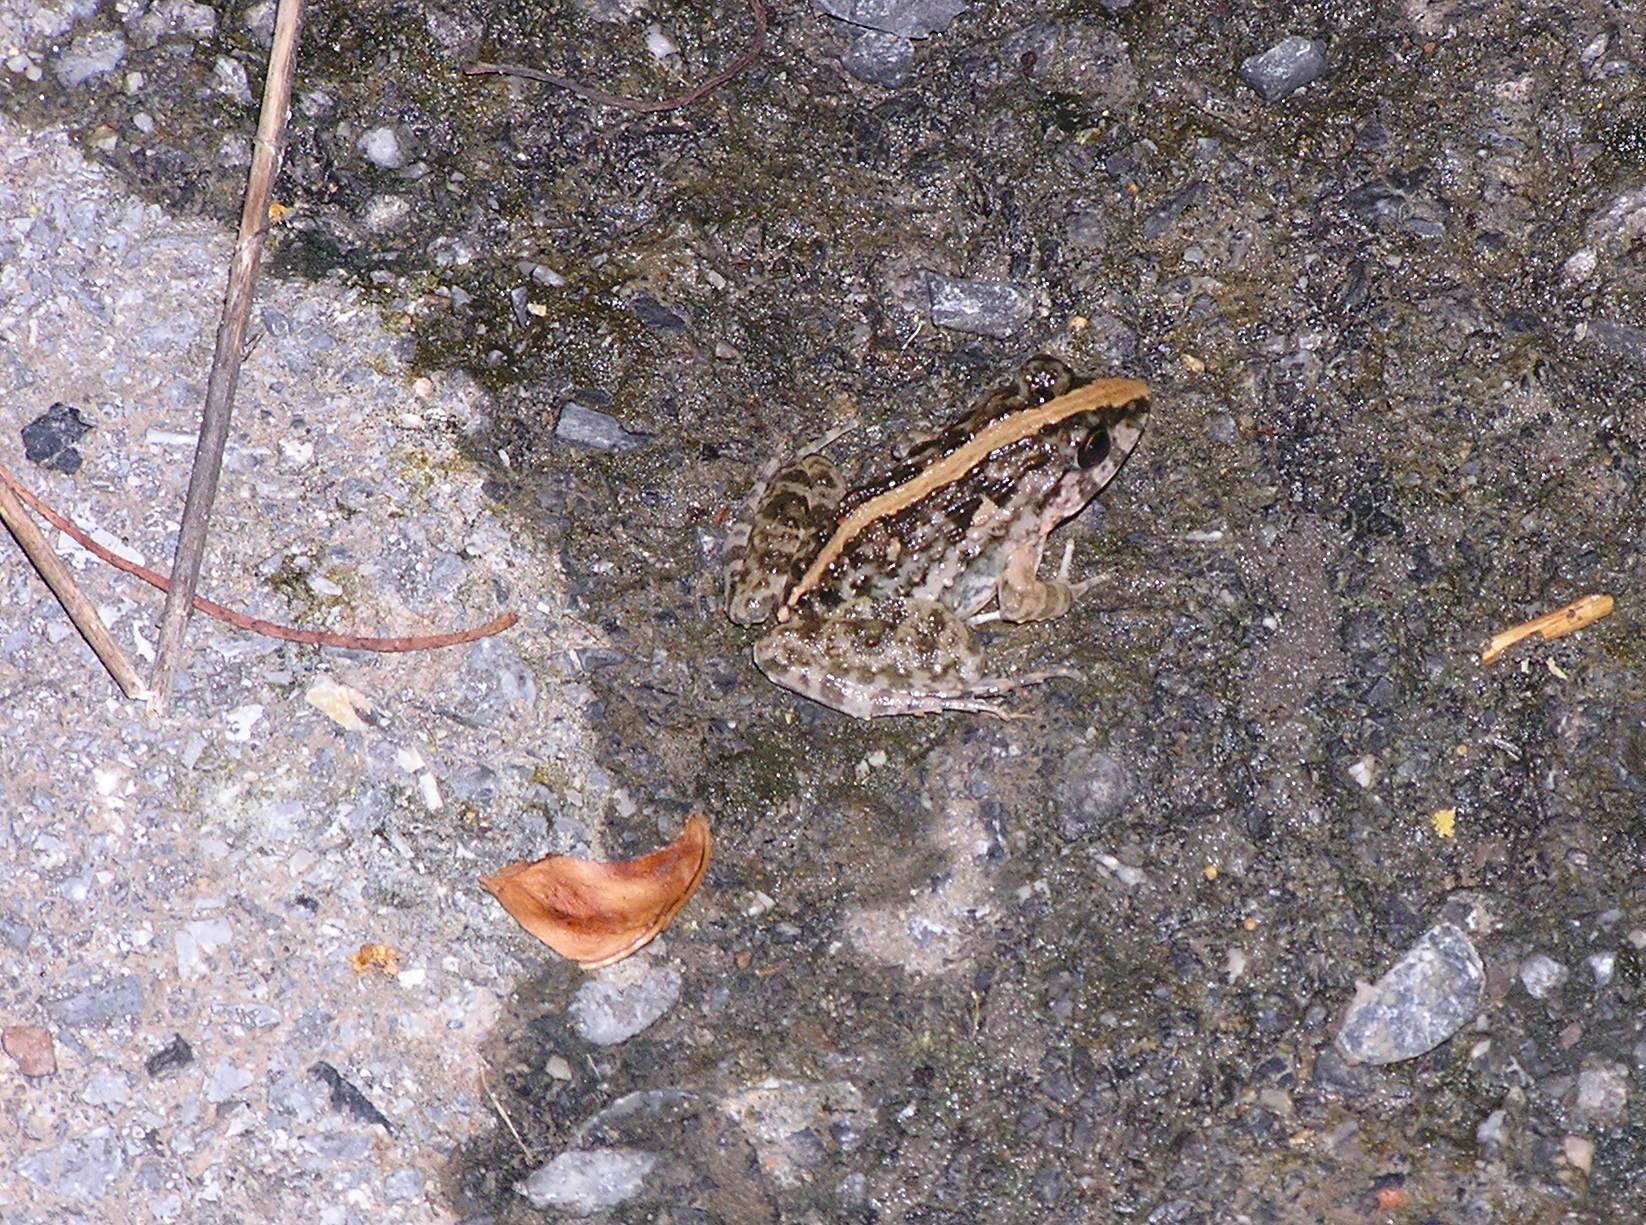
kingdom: Animalia
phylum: Chordata
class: Amphibia
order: Anura
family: Dicroglossidae
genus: Fejervarya
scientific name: Fejervarya limnocharis
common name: Asian grass frog/common pond frog/field frog/grass frog/indian rice frog
